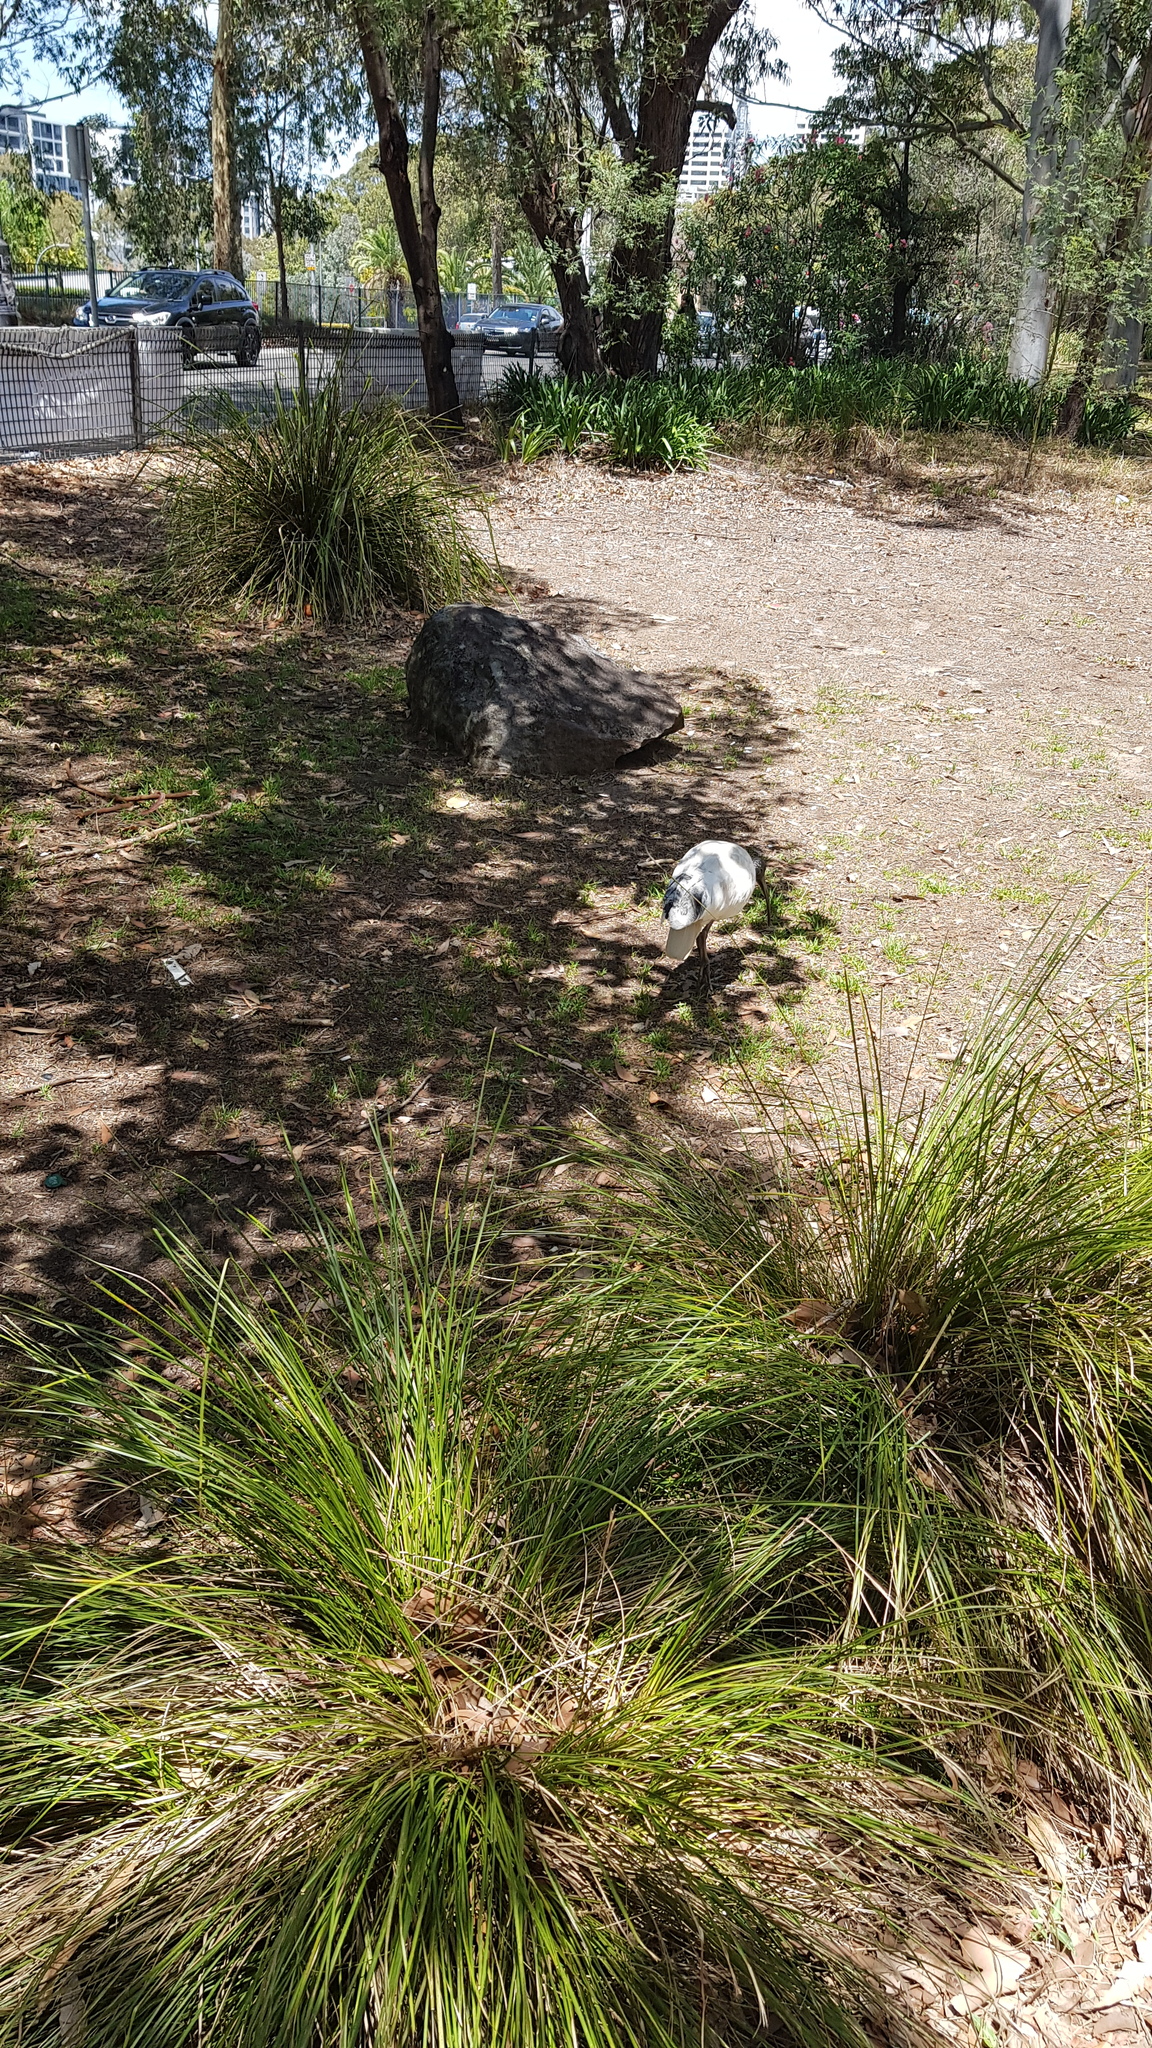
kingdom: Animalia
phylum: Chordata
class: Aves
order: Pelecaniformes
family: Threskiornithidae
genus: Threskiornis
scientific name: Threskiornis molucca
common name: Australian white ibis
